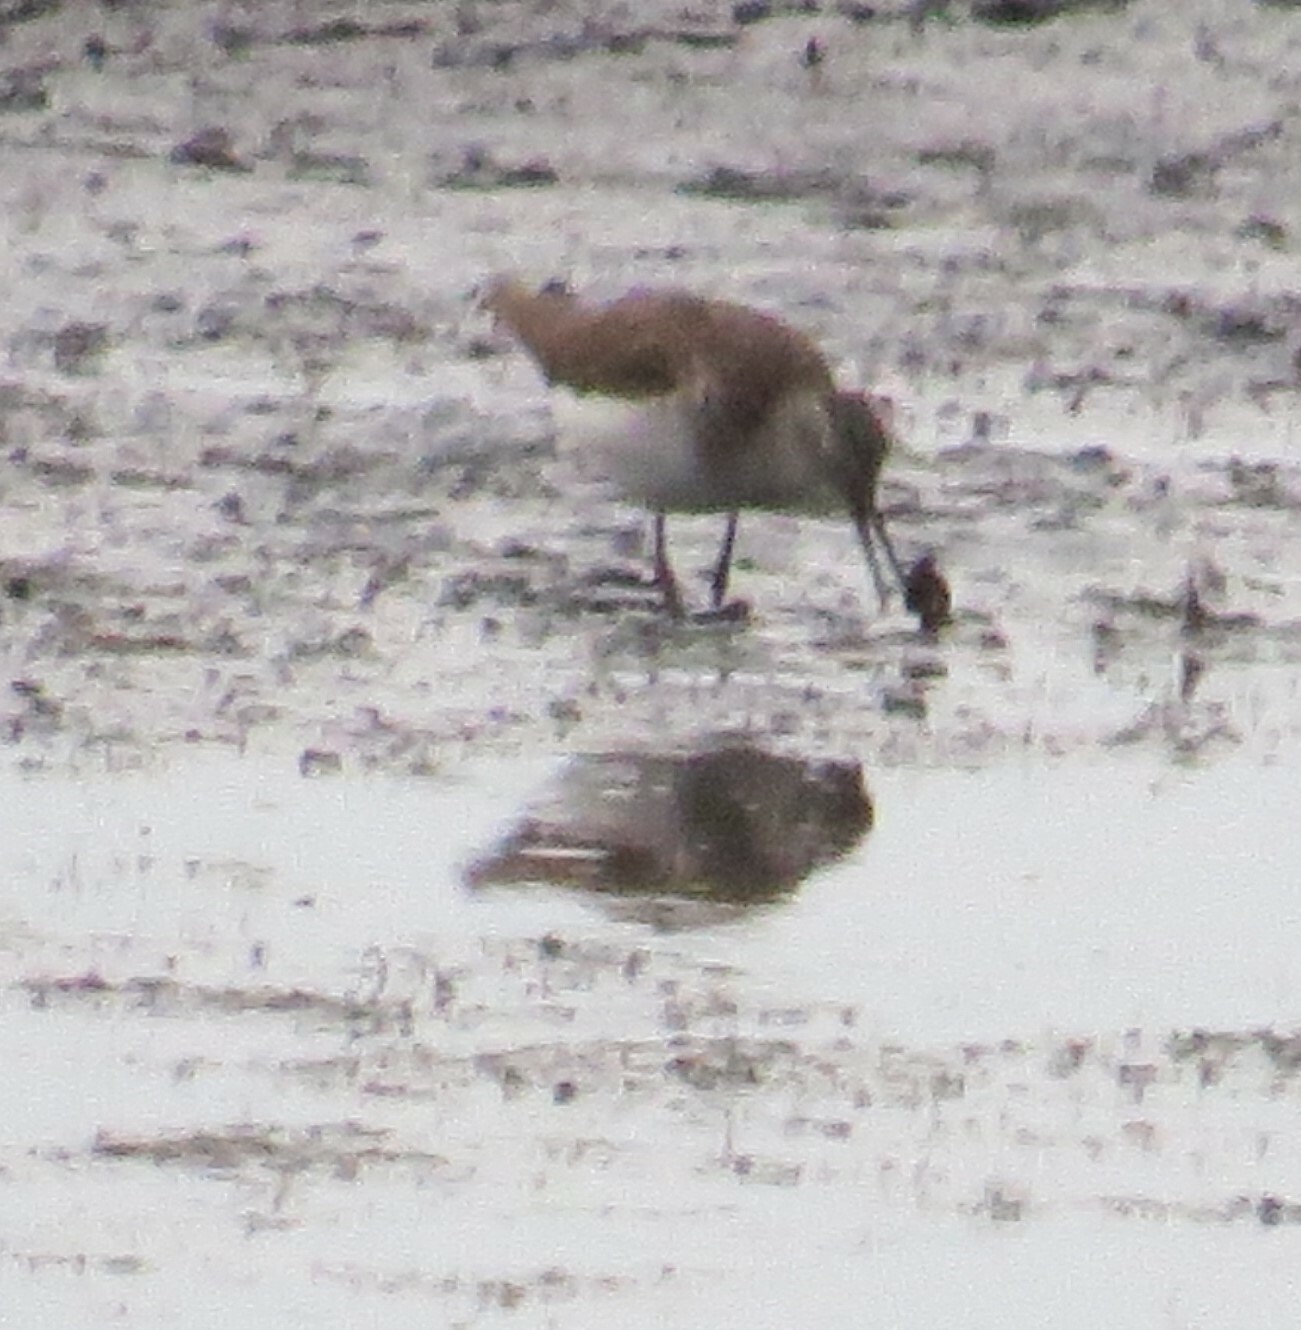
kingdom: Animalia
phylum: Chordata
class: Aves
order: Charadriiformes
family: Scolopacidae
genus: Tringa
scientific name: Tringa solitaria
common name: Solitary sandpiper
